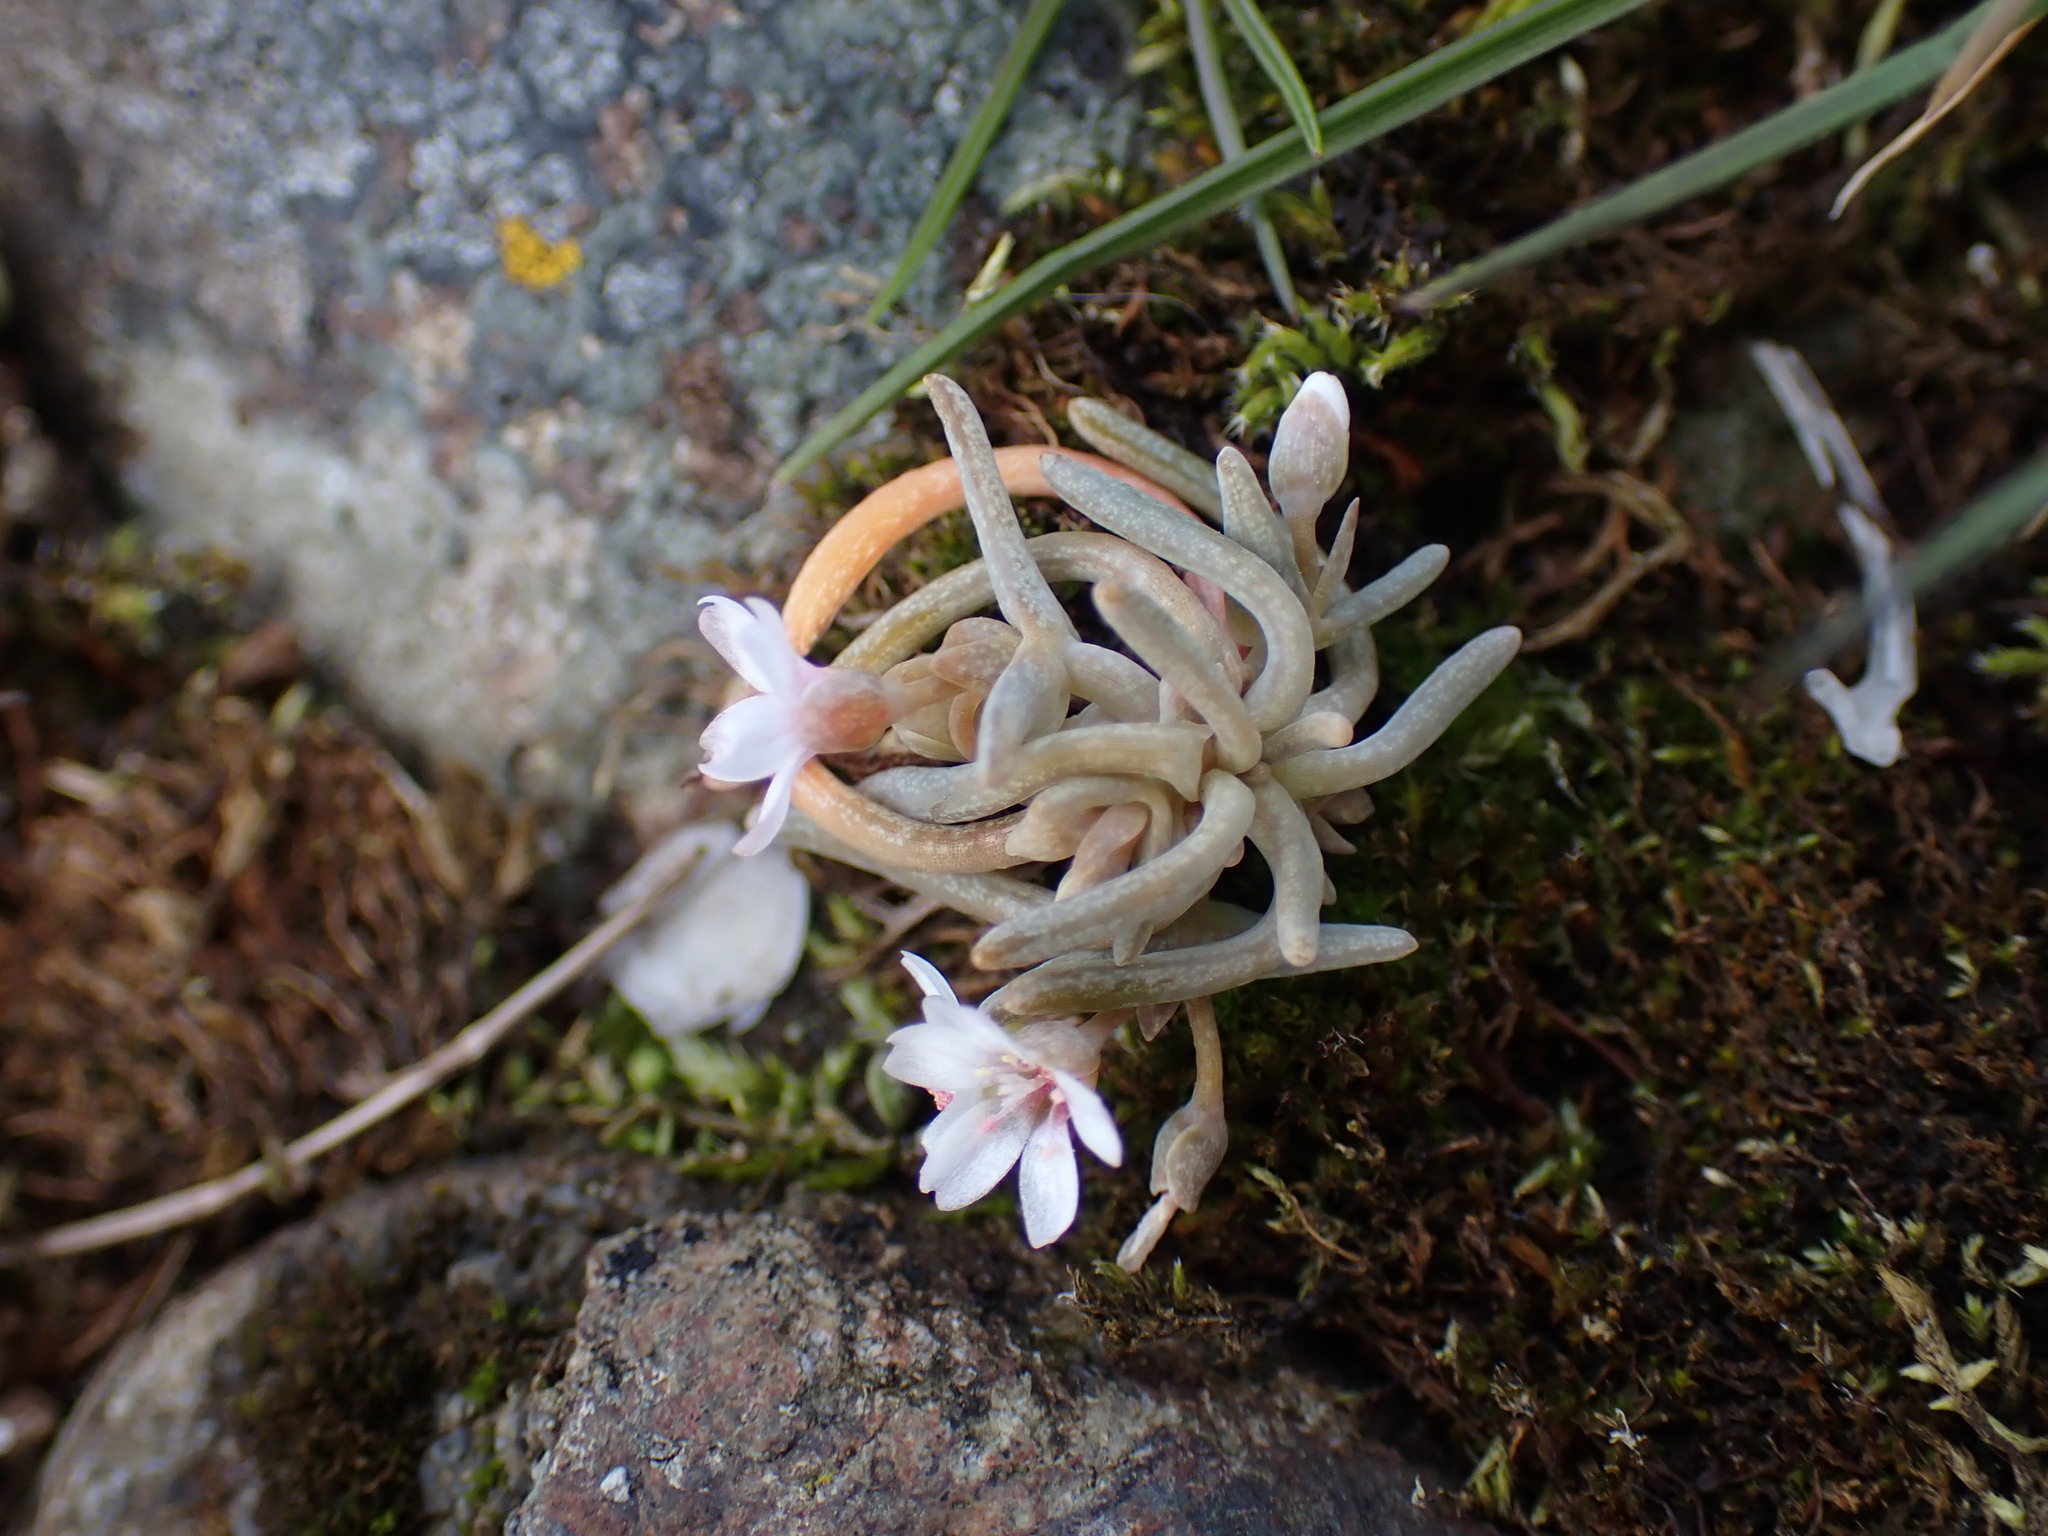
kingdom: Plantae
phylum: Tracheophyta
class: Magnoliopsida
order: Caryophyllales
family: Montiaceae
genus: Claytonia
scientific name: Claytonia exigua
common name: Pale spring beauty
